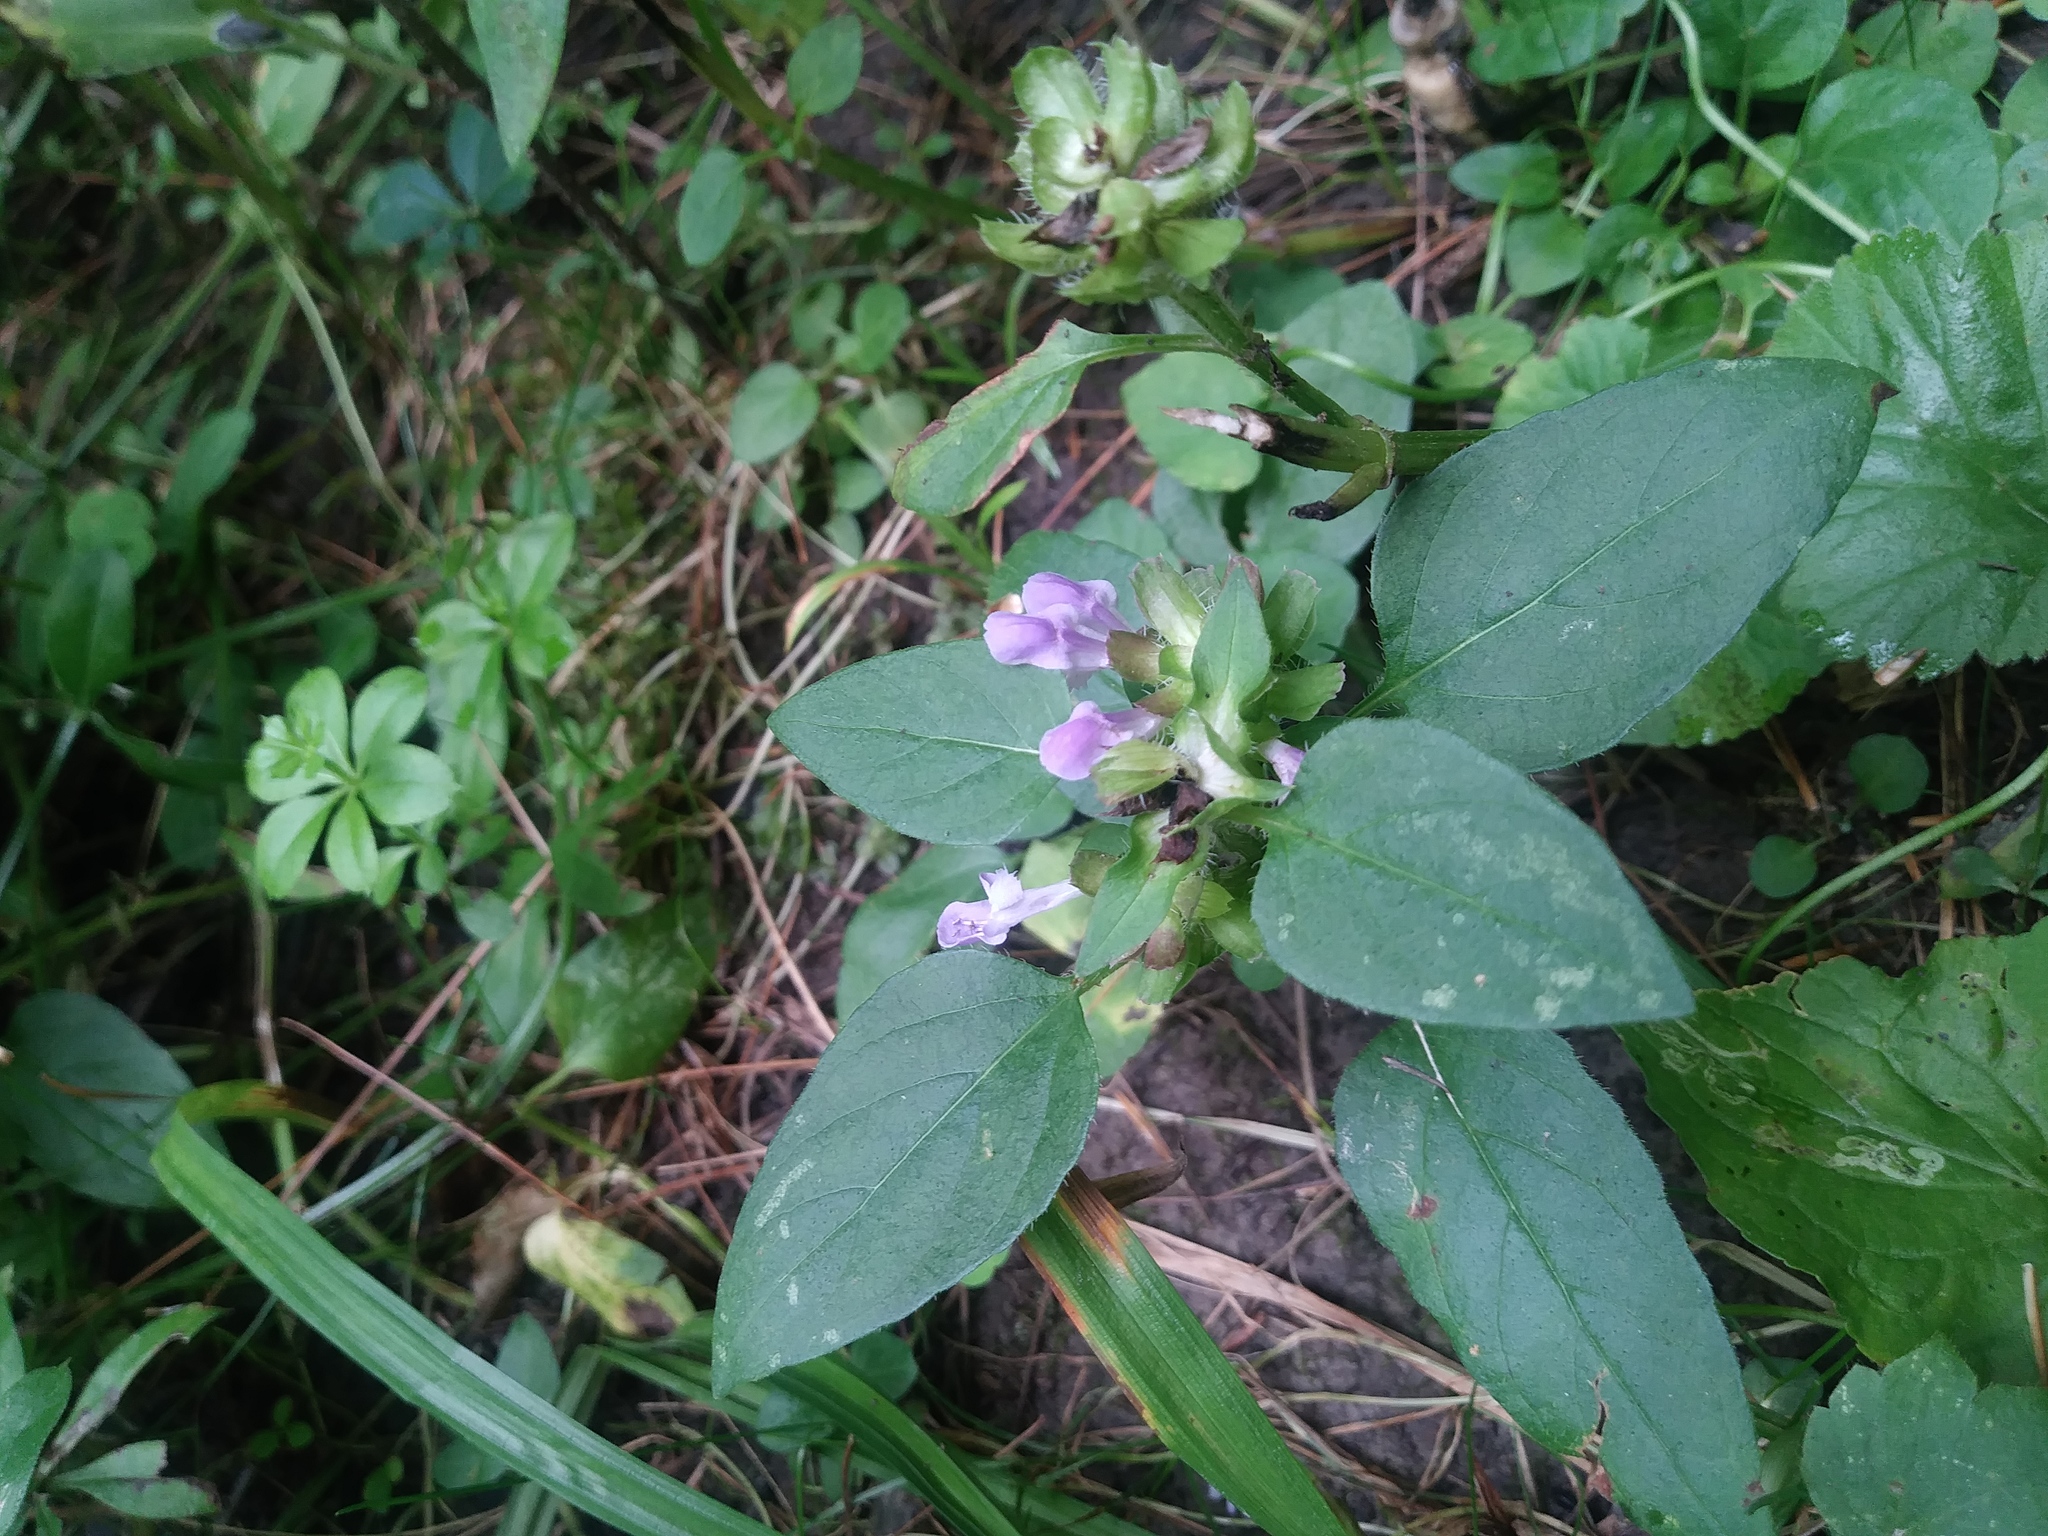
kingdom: Plantae
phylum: Tracheophyta
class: Magnoliopsida
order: Lamiales
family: Lamiaceae
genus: Prunella
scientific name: Prunella vulgaris
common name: Heal-all
